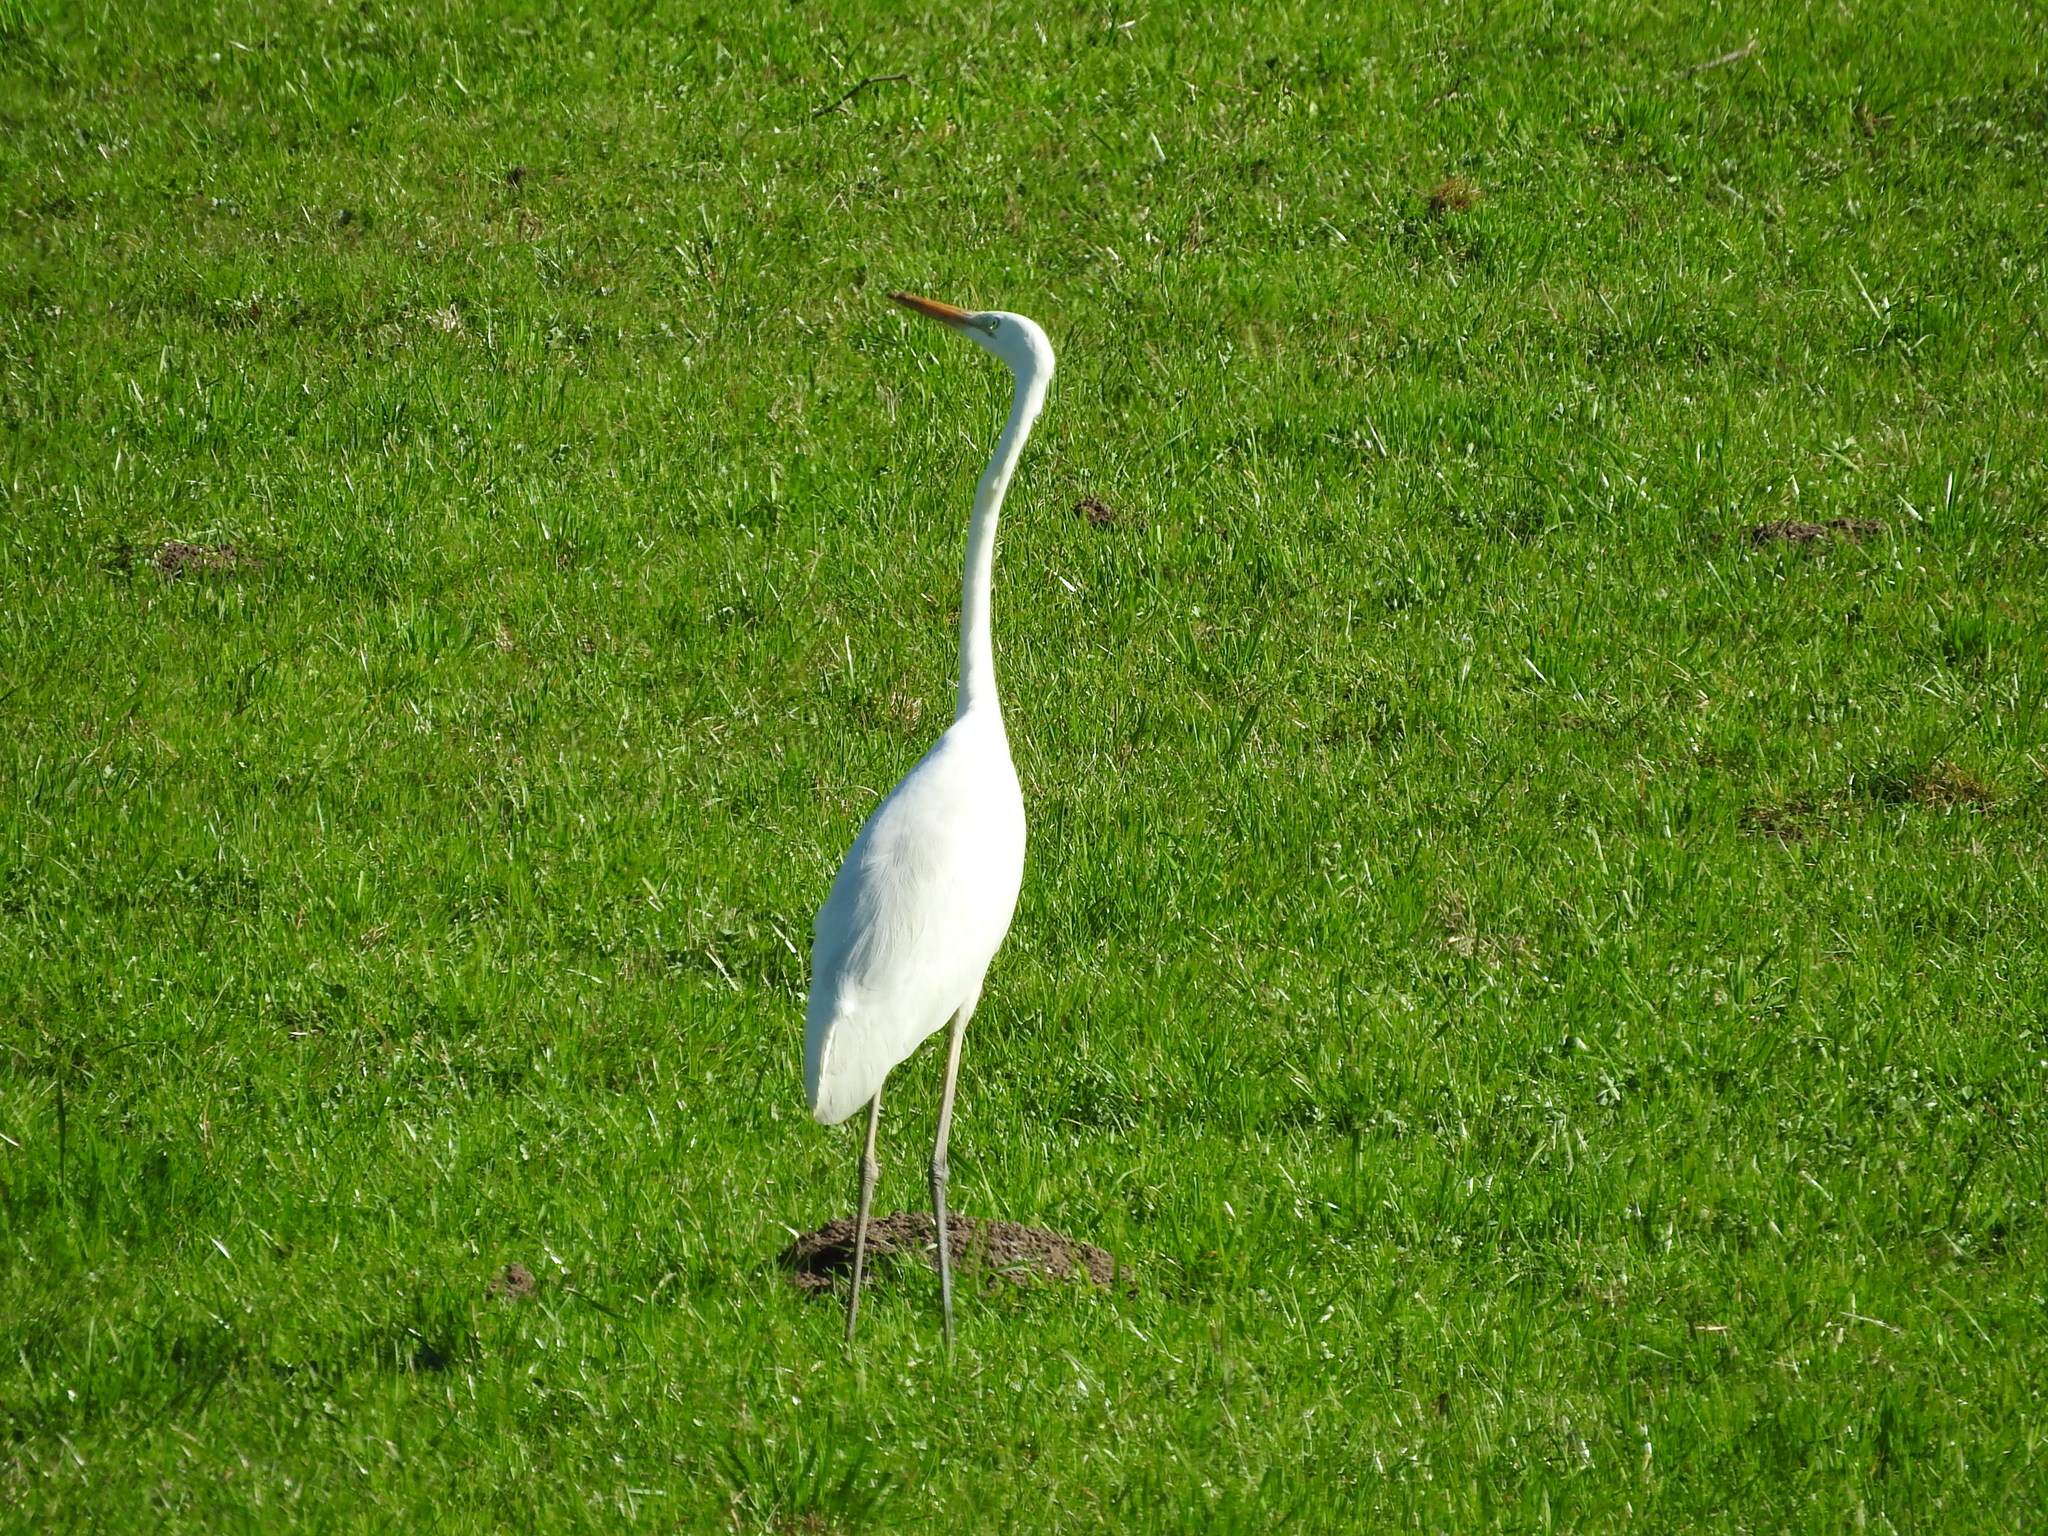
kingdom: Animalia
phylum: Chordata
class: Aves
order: Pelecaniformes
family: Ardeidae
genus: Ardea
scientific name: Ardea alba
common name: Great egret
